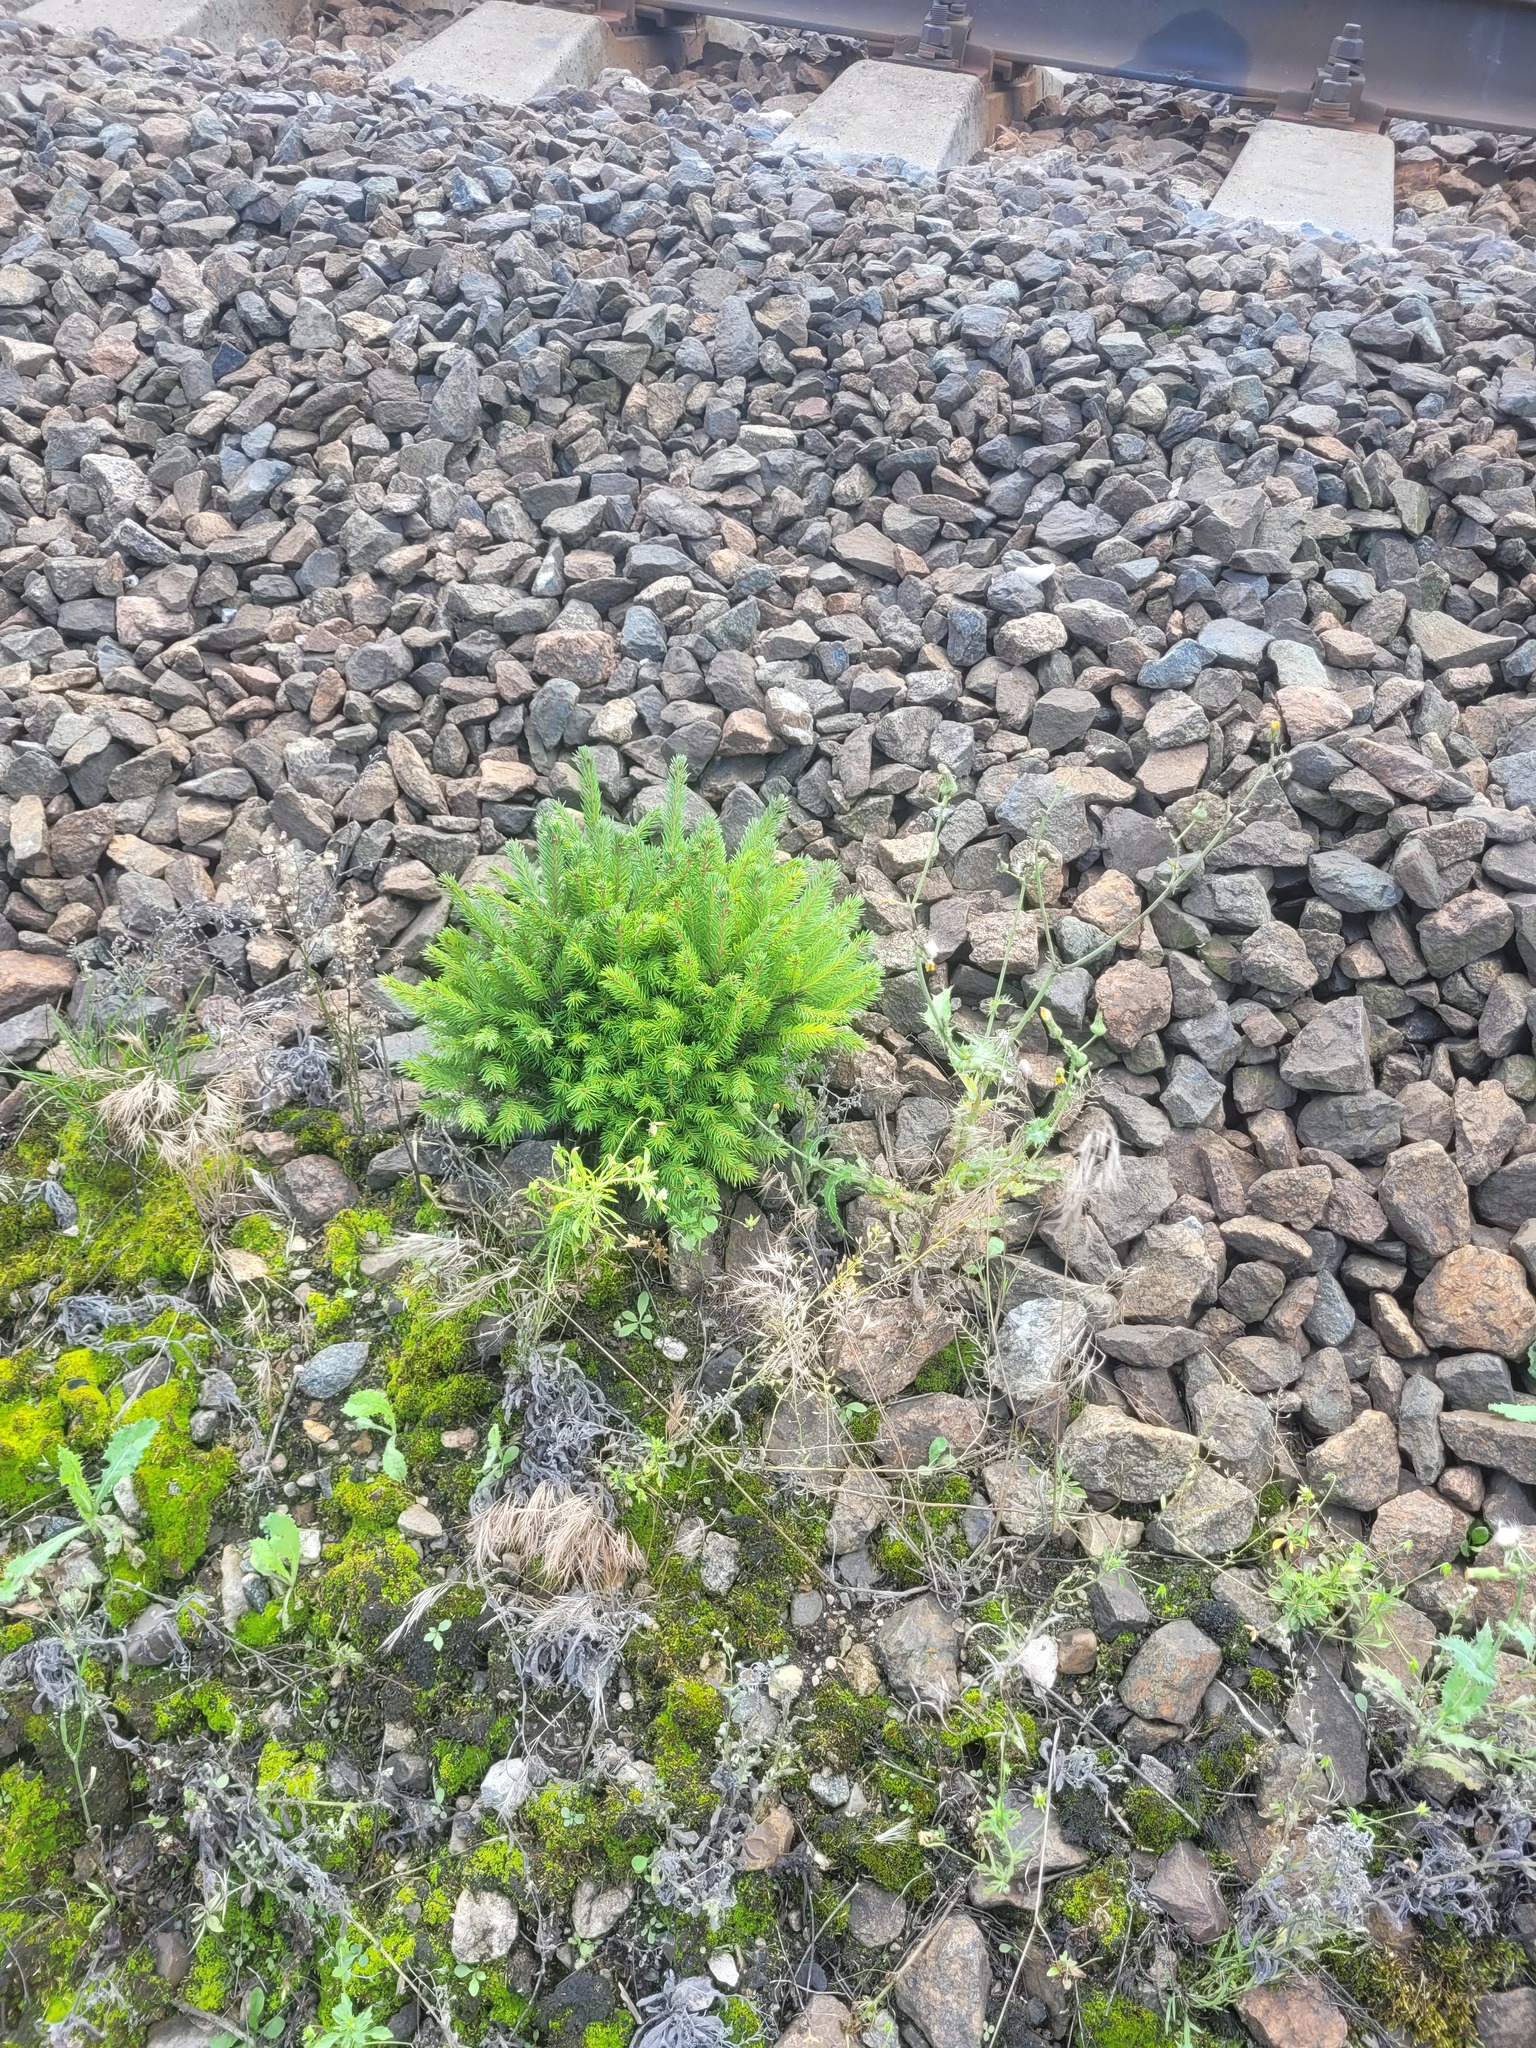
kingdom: Plantae
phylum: Tracheophyta
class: Pinopsida
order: Pinales
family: Pinaceae
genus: Picea
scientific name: Picea abies
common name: Norway spruce
